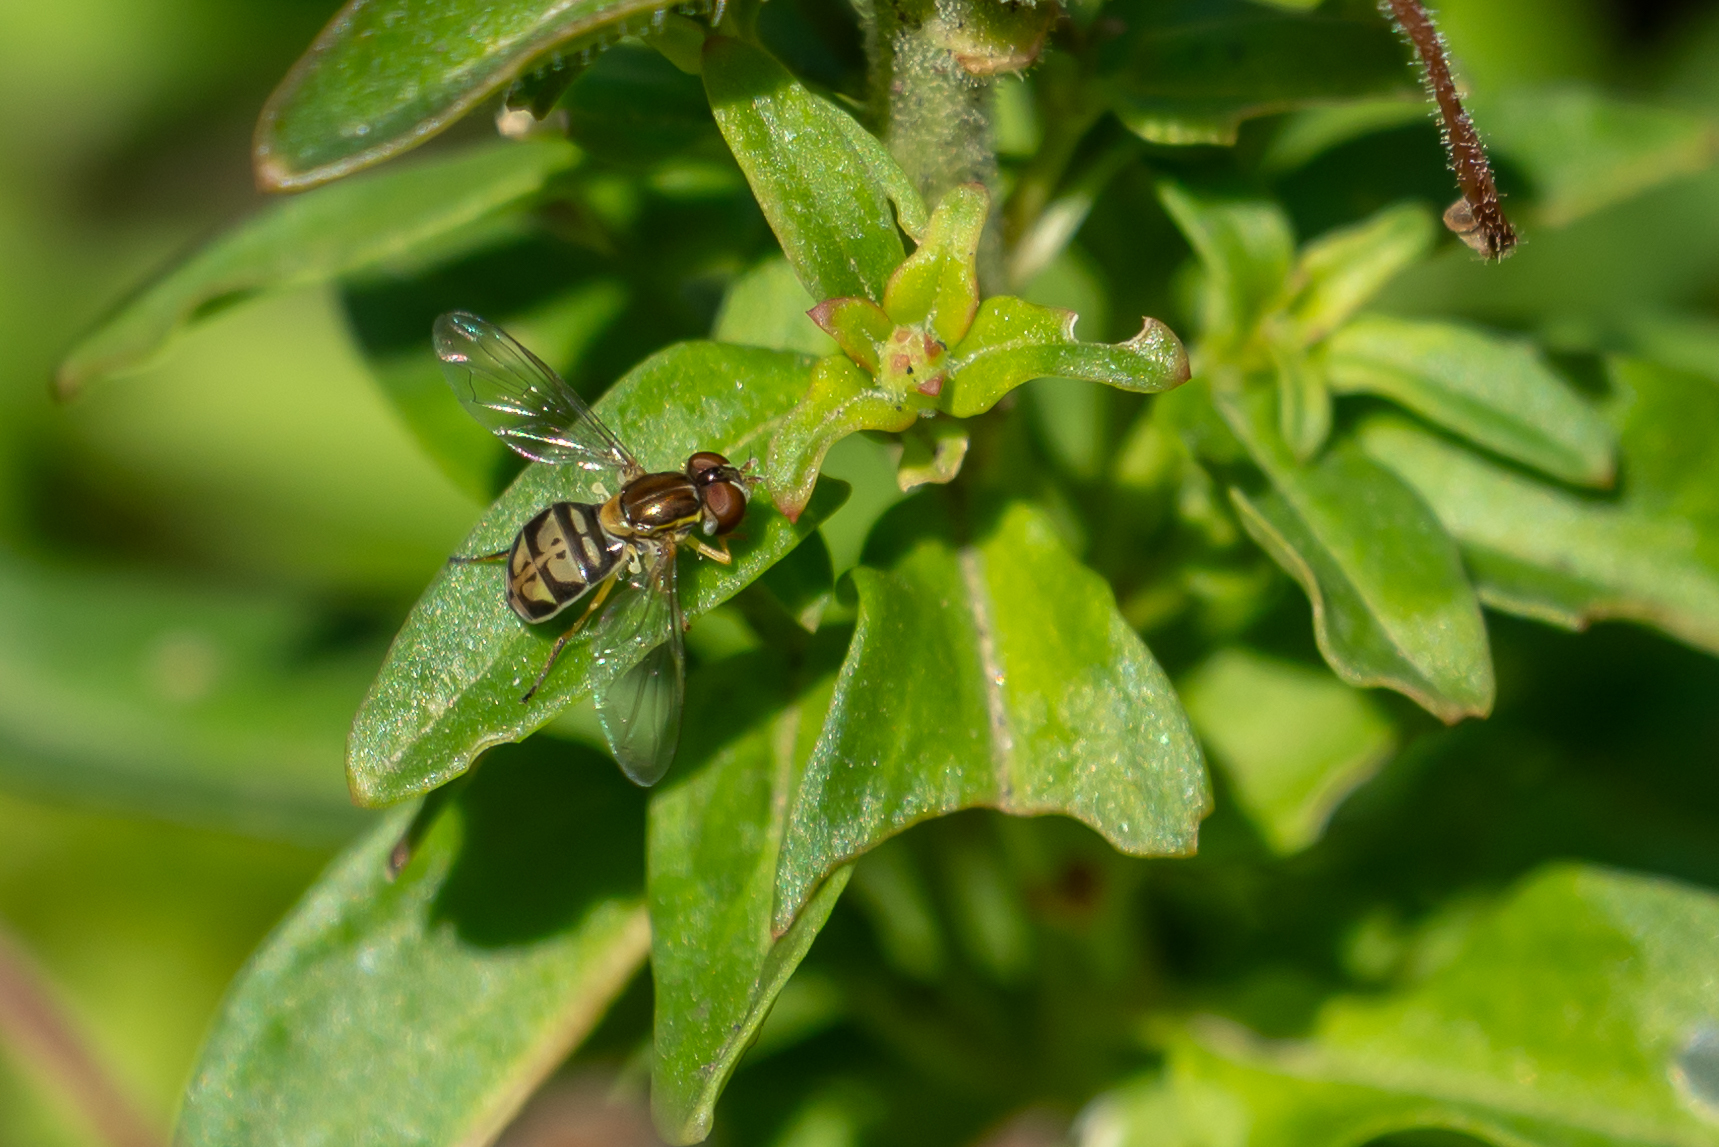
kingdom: Animalia
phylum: Arthropoda
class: Insecta
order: Diptera
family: Syrphidae
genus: Toxomerus
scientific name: Toxomerus marginatus
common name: Syrphid fly
